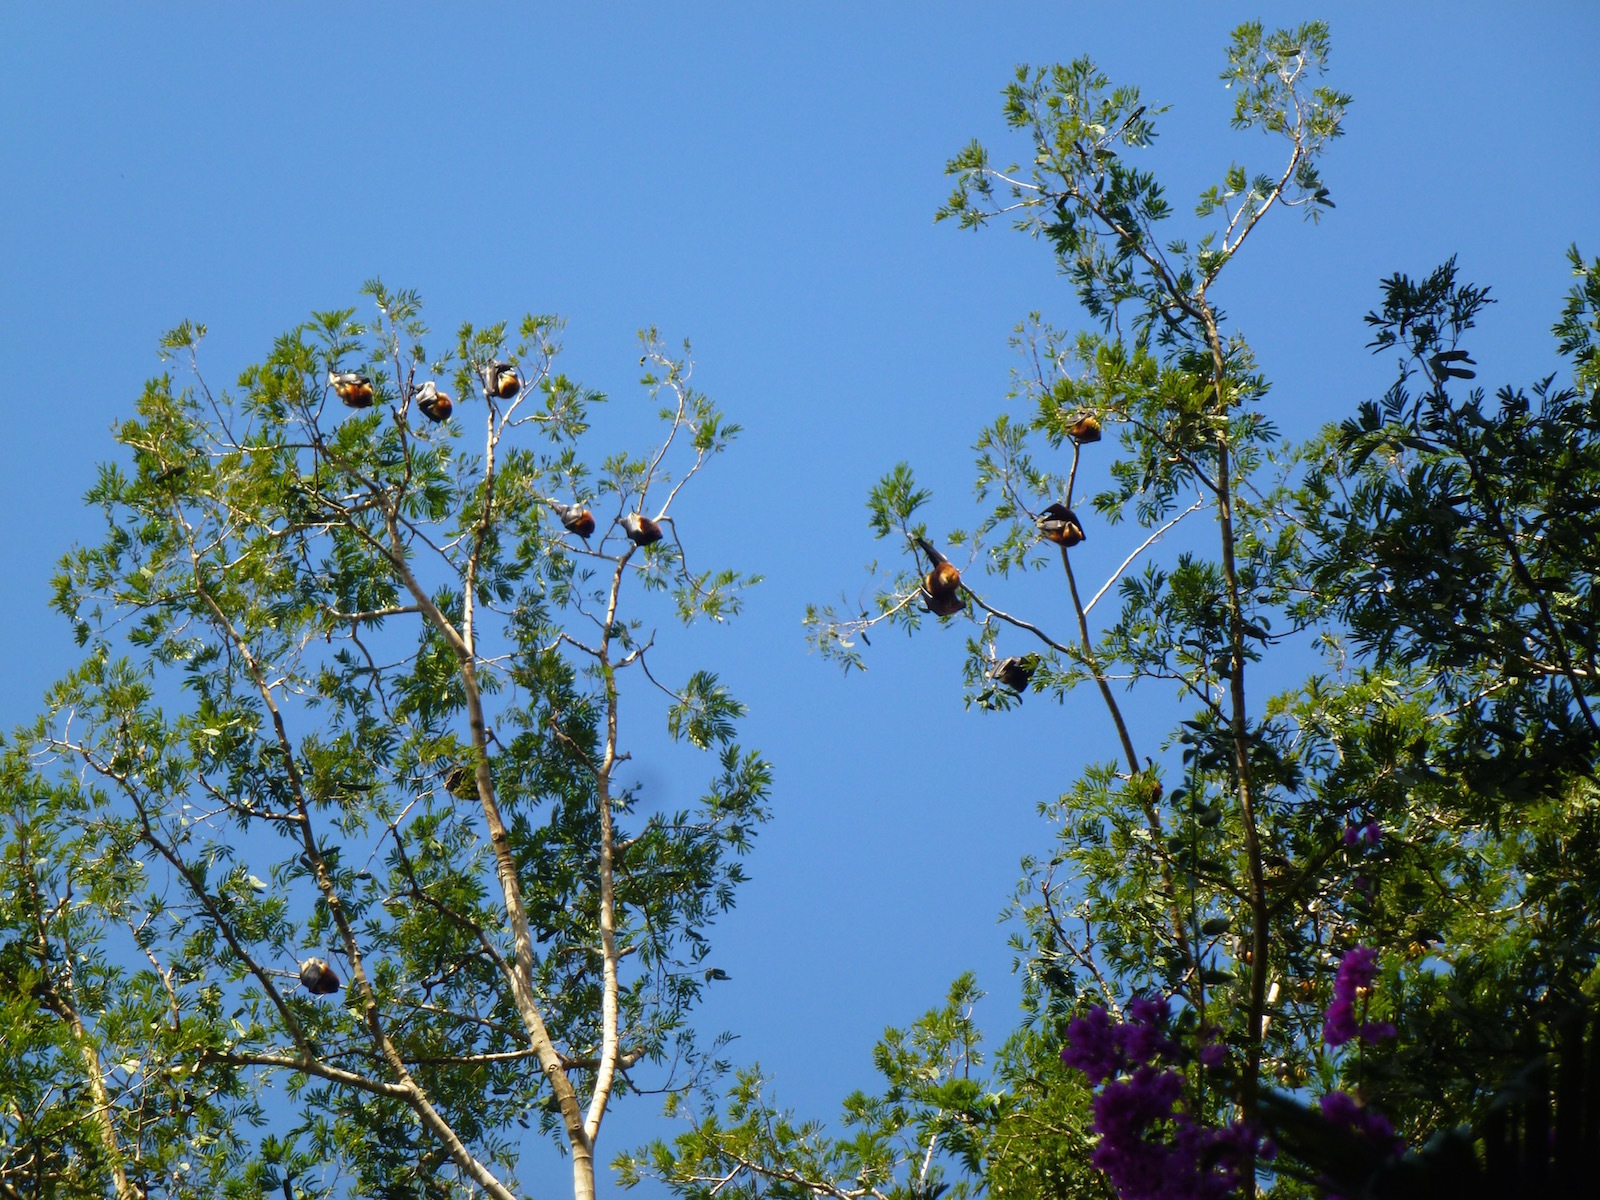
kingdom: Animalia
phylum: Chordata
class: Mammalia
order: Chiroptera
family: Pteropodidae
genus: Pteropus
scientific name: Pteropus niger
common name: Greater mascarene flying fox
